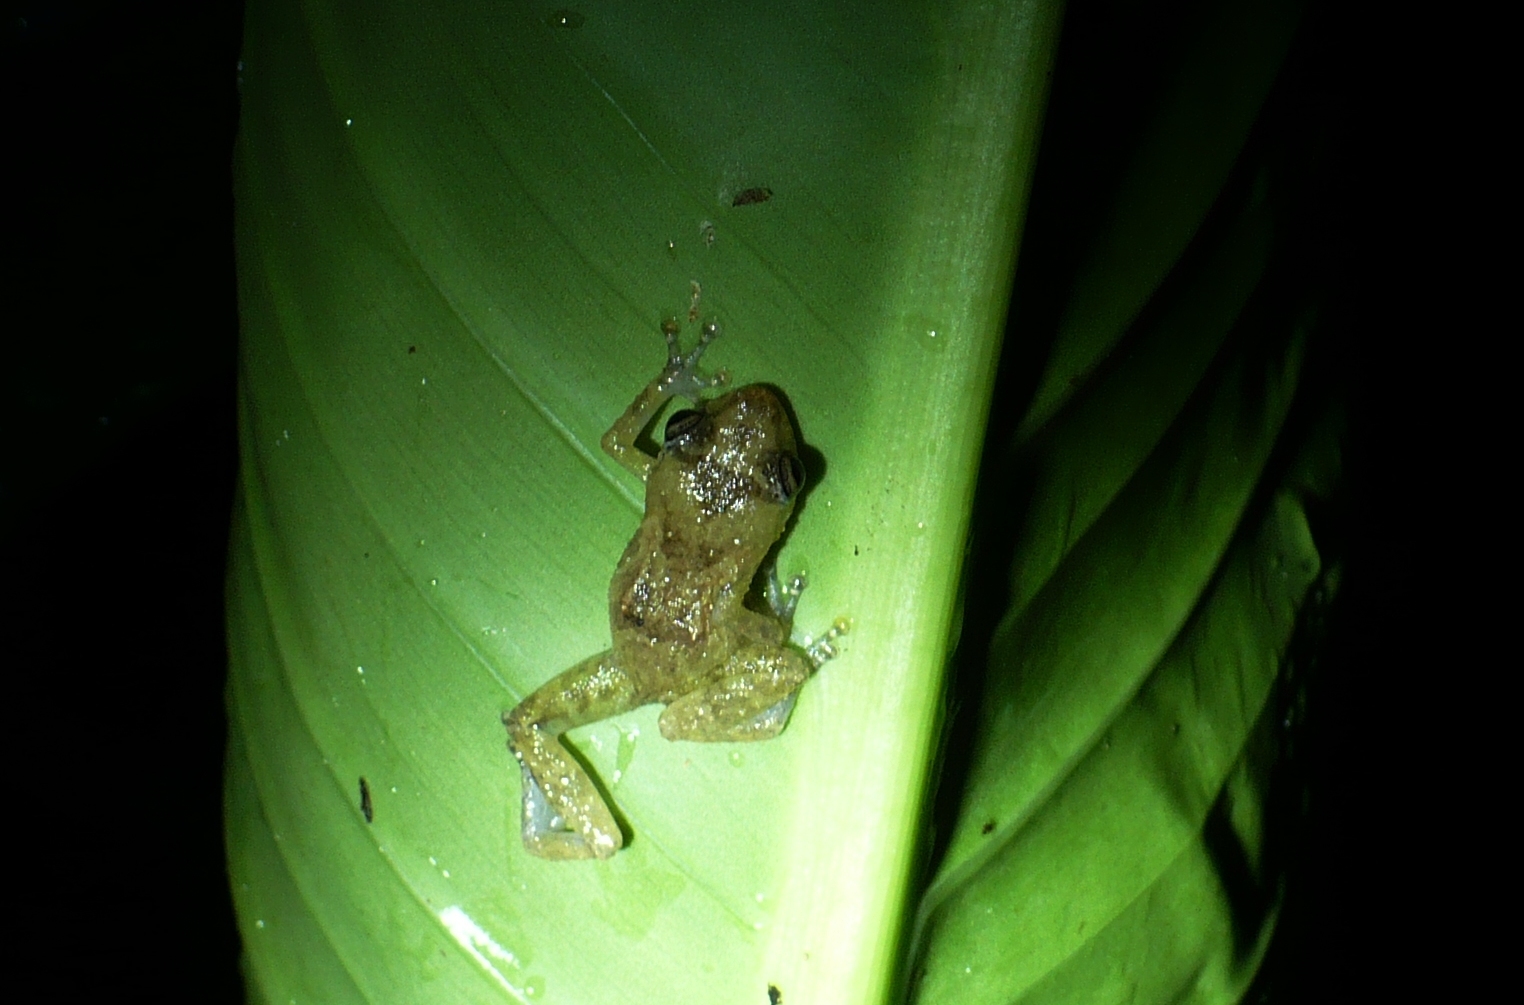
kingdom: Animalia
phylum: Chordata
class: Amphibia
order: Anura
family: Eleutherodactylidae
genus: Diasporus
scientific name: Diasporus diastema
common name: Caretta robber frog
